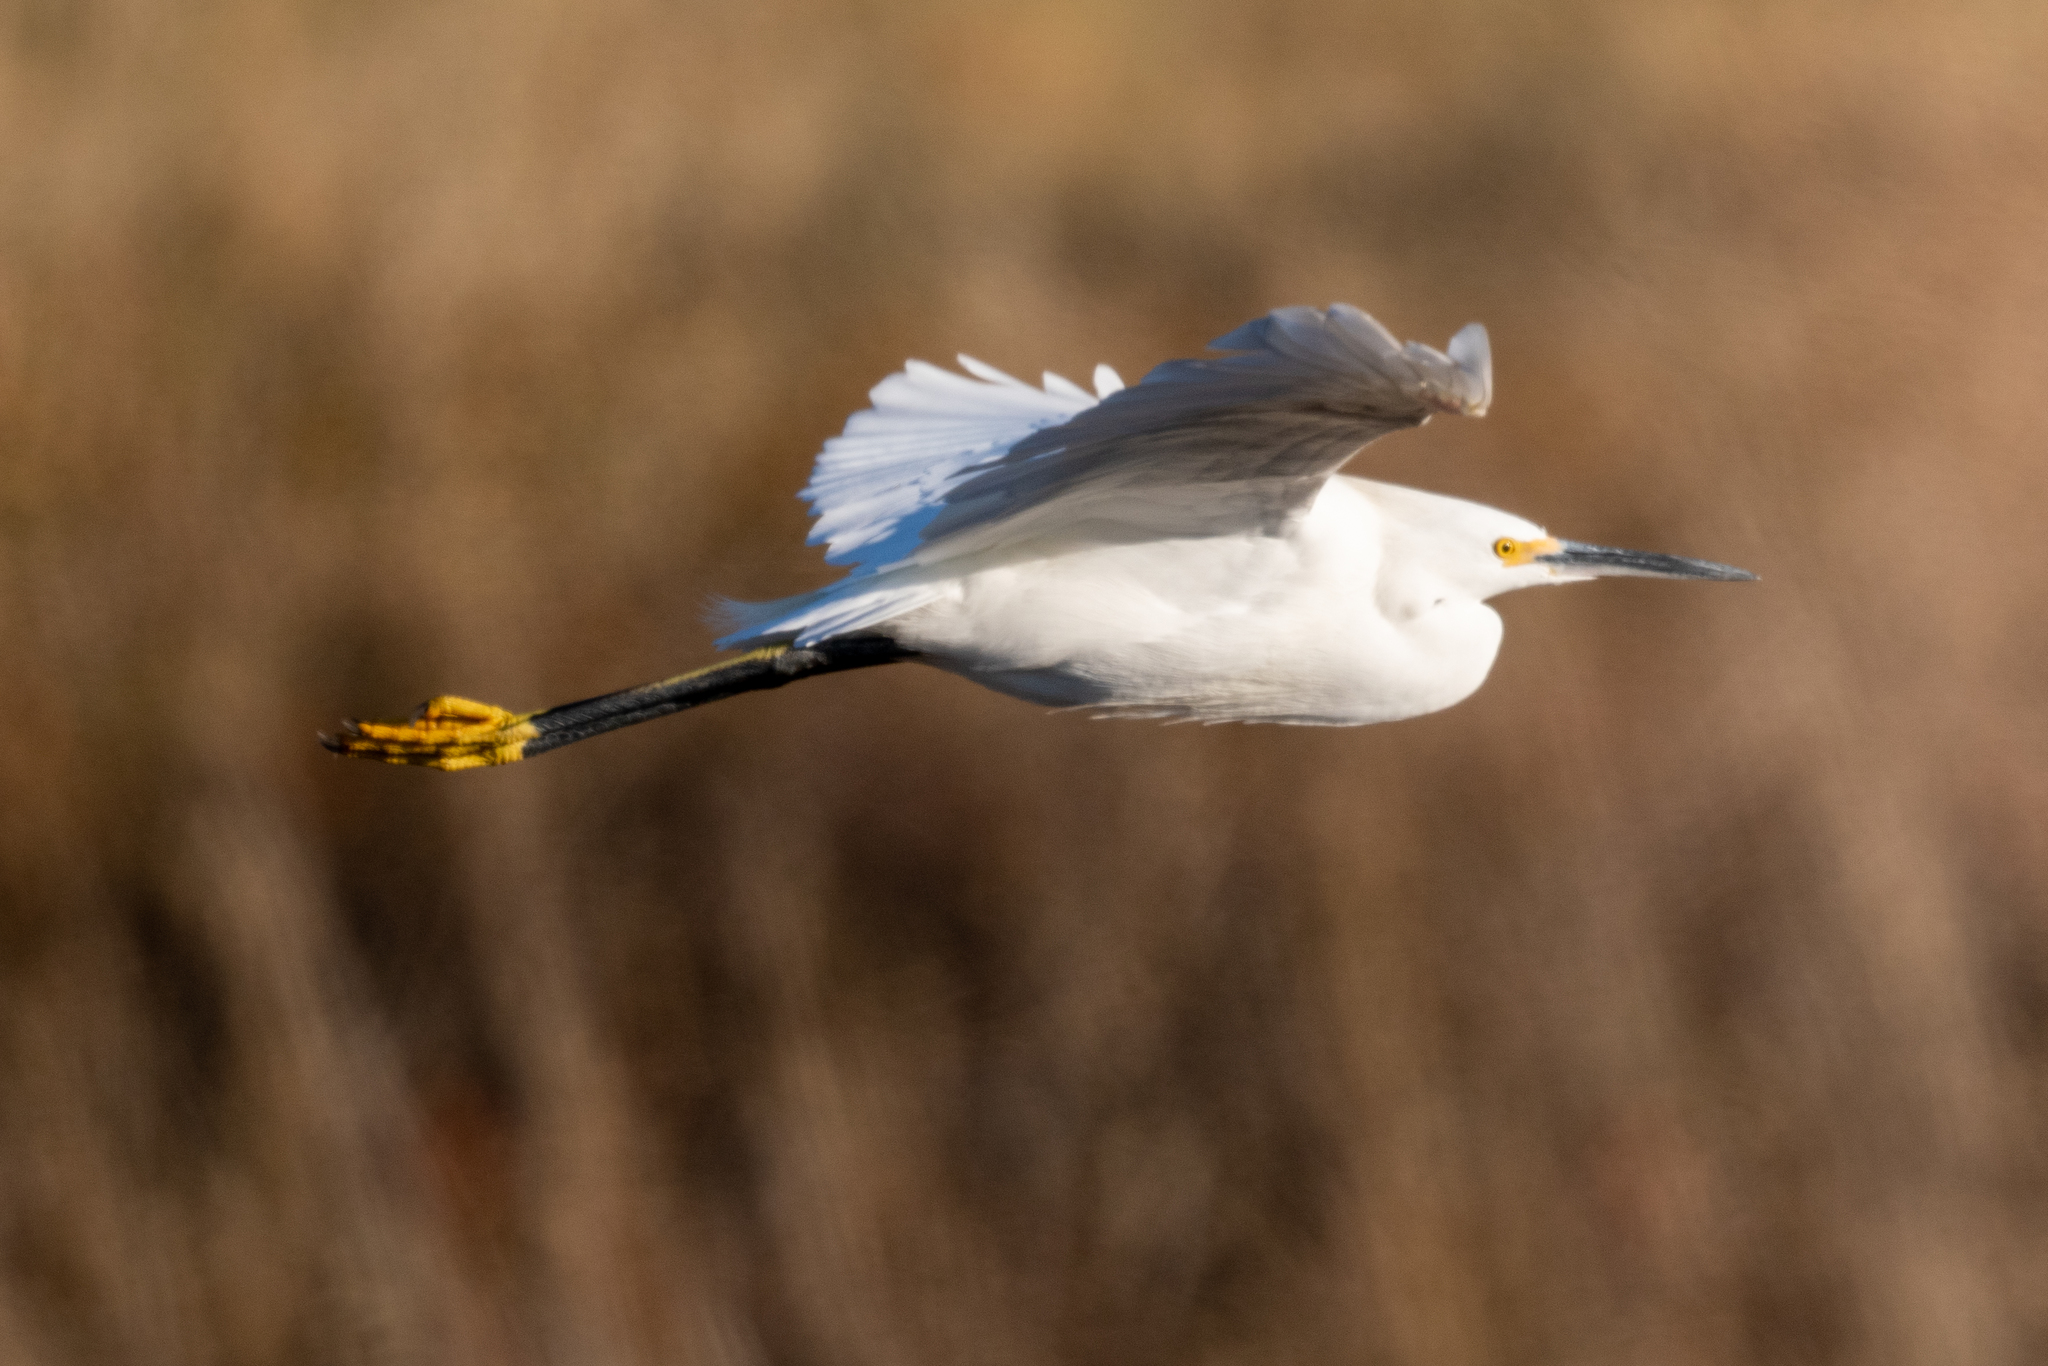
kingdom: Animalia
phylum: Chordata
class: Aves
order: Pelecaniformes
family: Ardeidae
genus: Egretta
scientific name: Egretta thula
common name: Snowy egret
